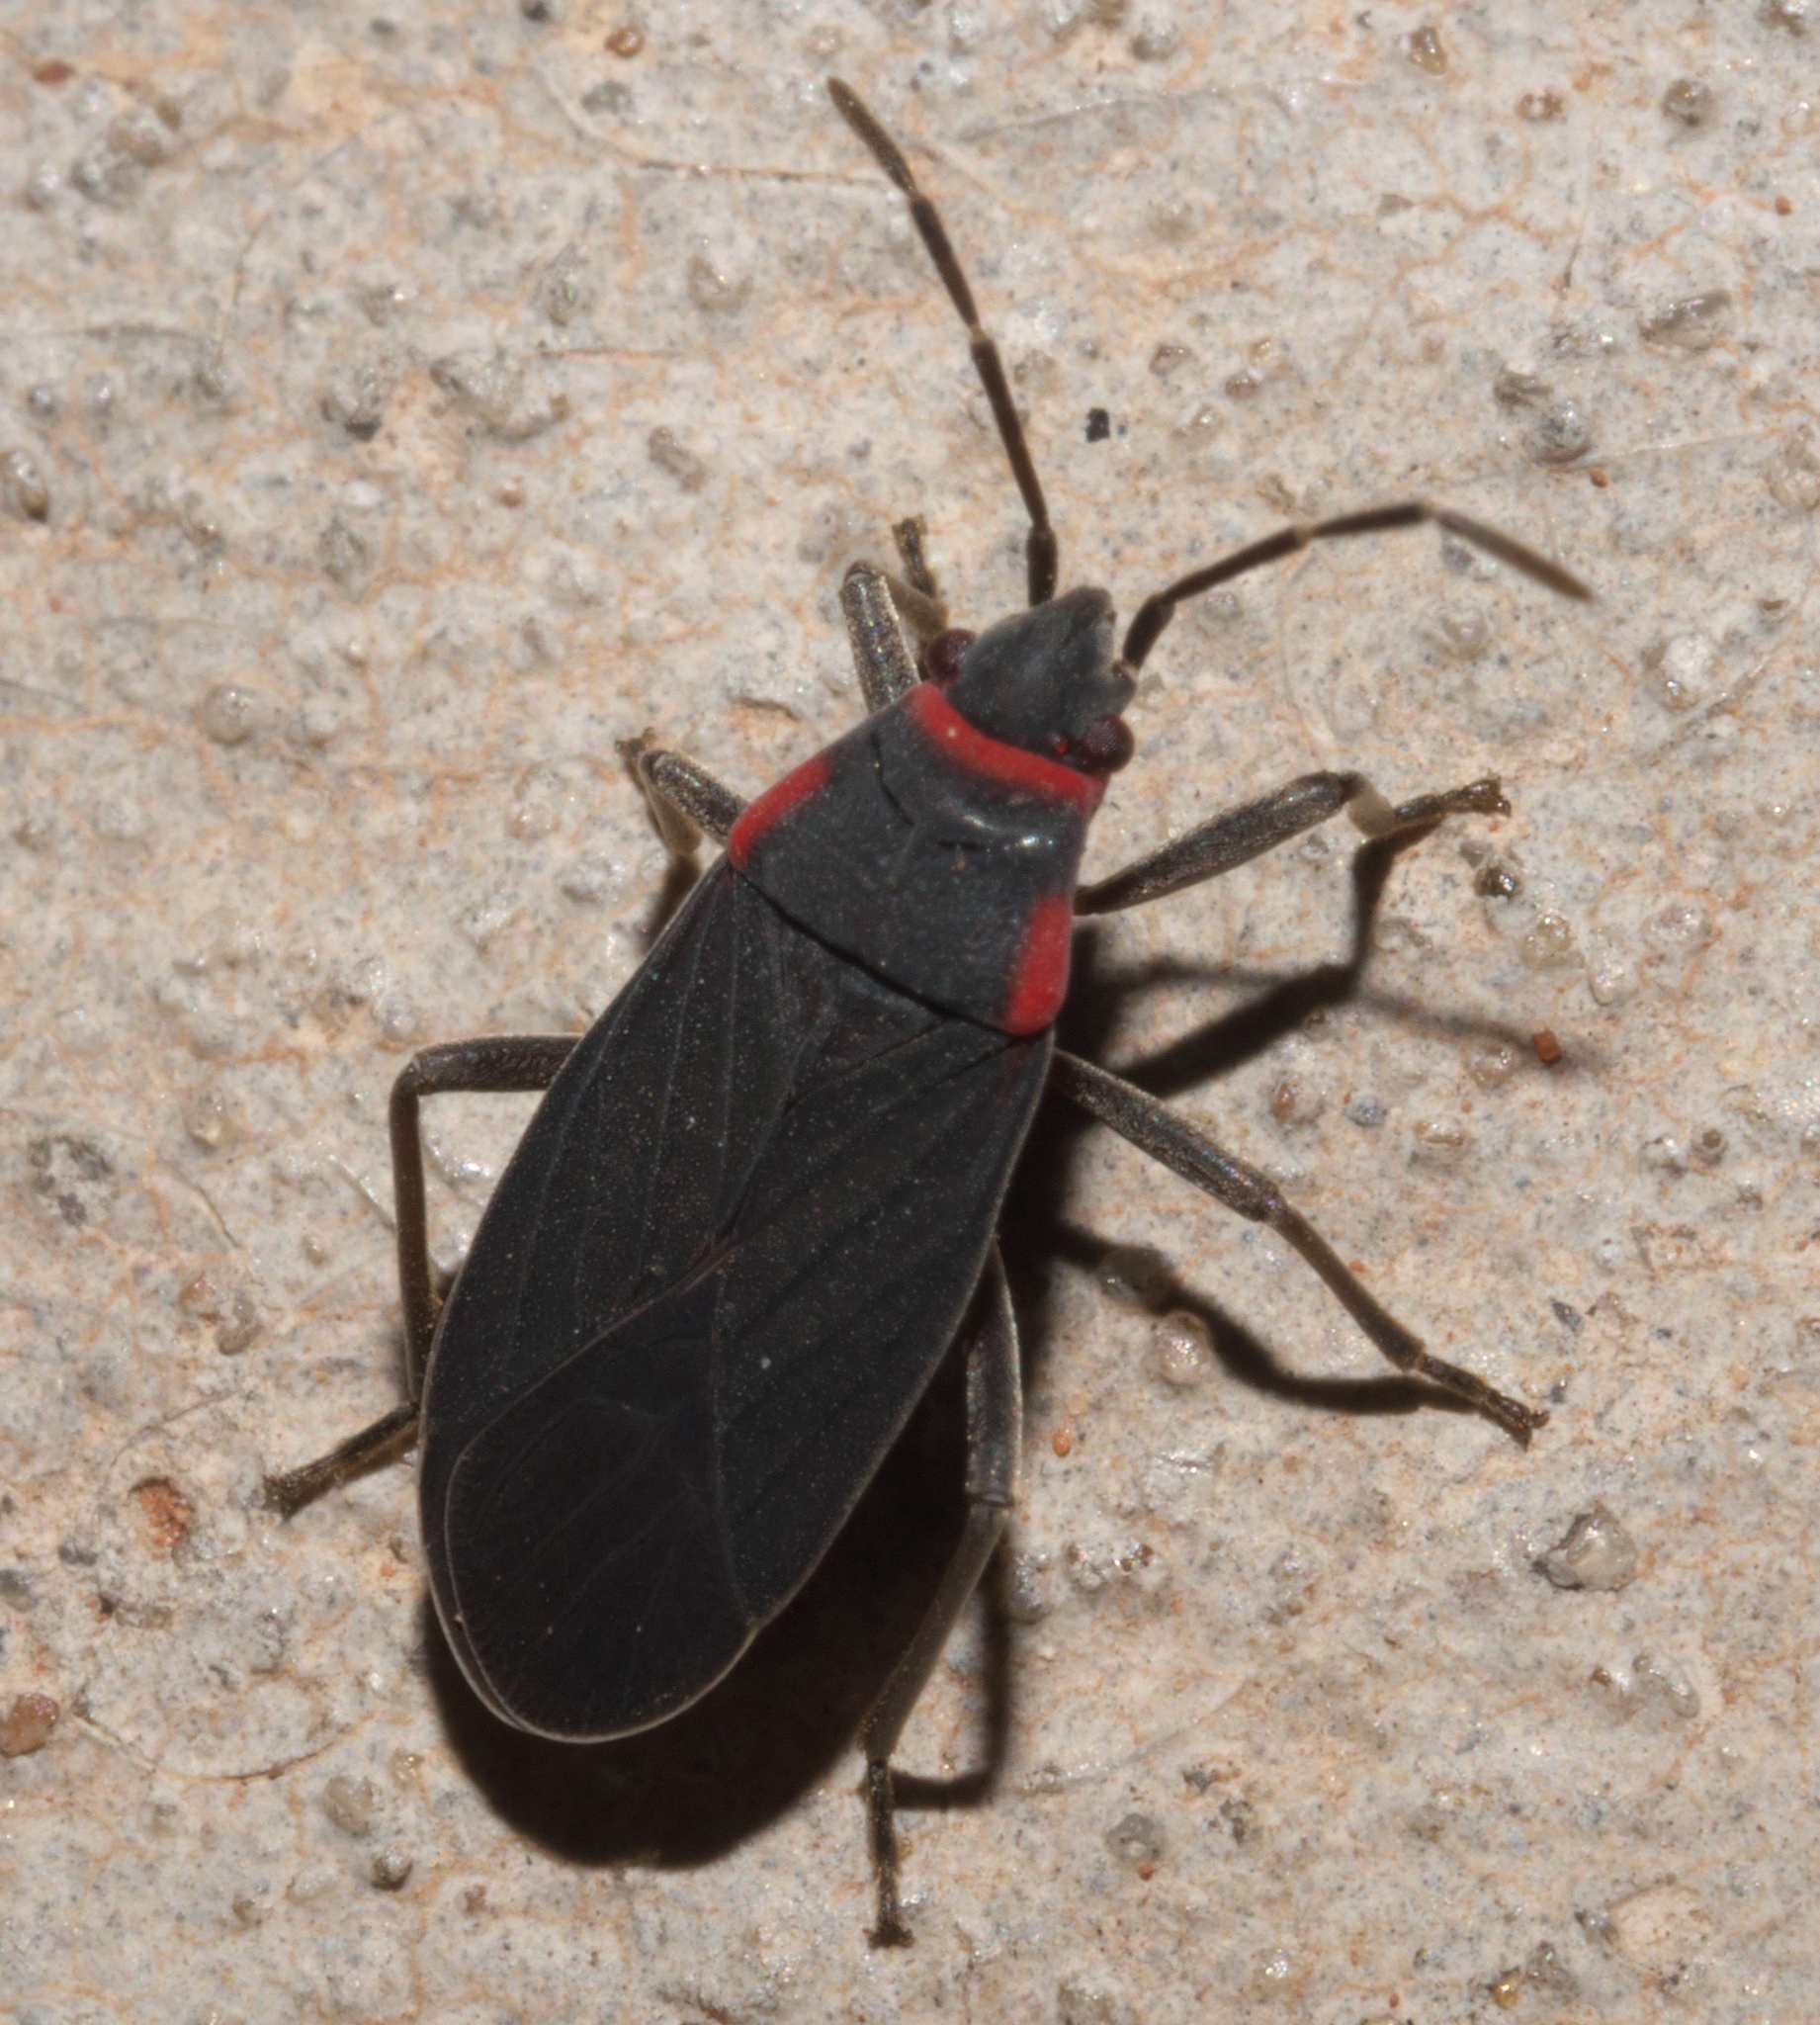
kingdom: Animalia
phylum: Arthropoda
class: Insecta
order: Hemiptera
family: Lygaeidae
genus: Melacoryphus
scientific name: Melacoryphus rubicollis
